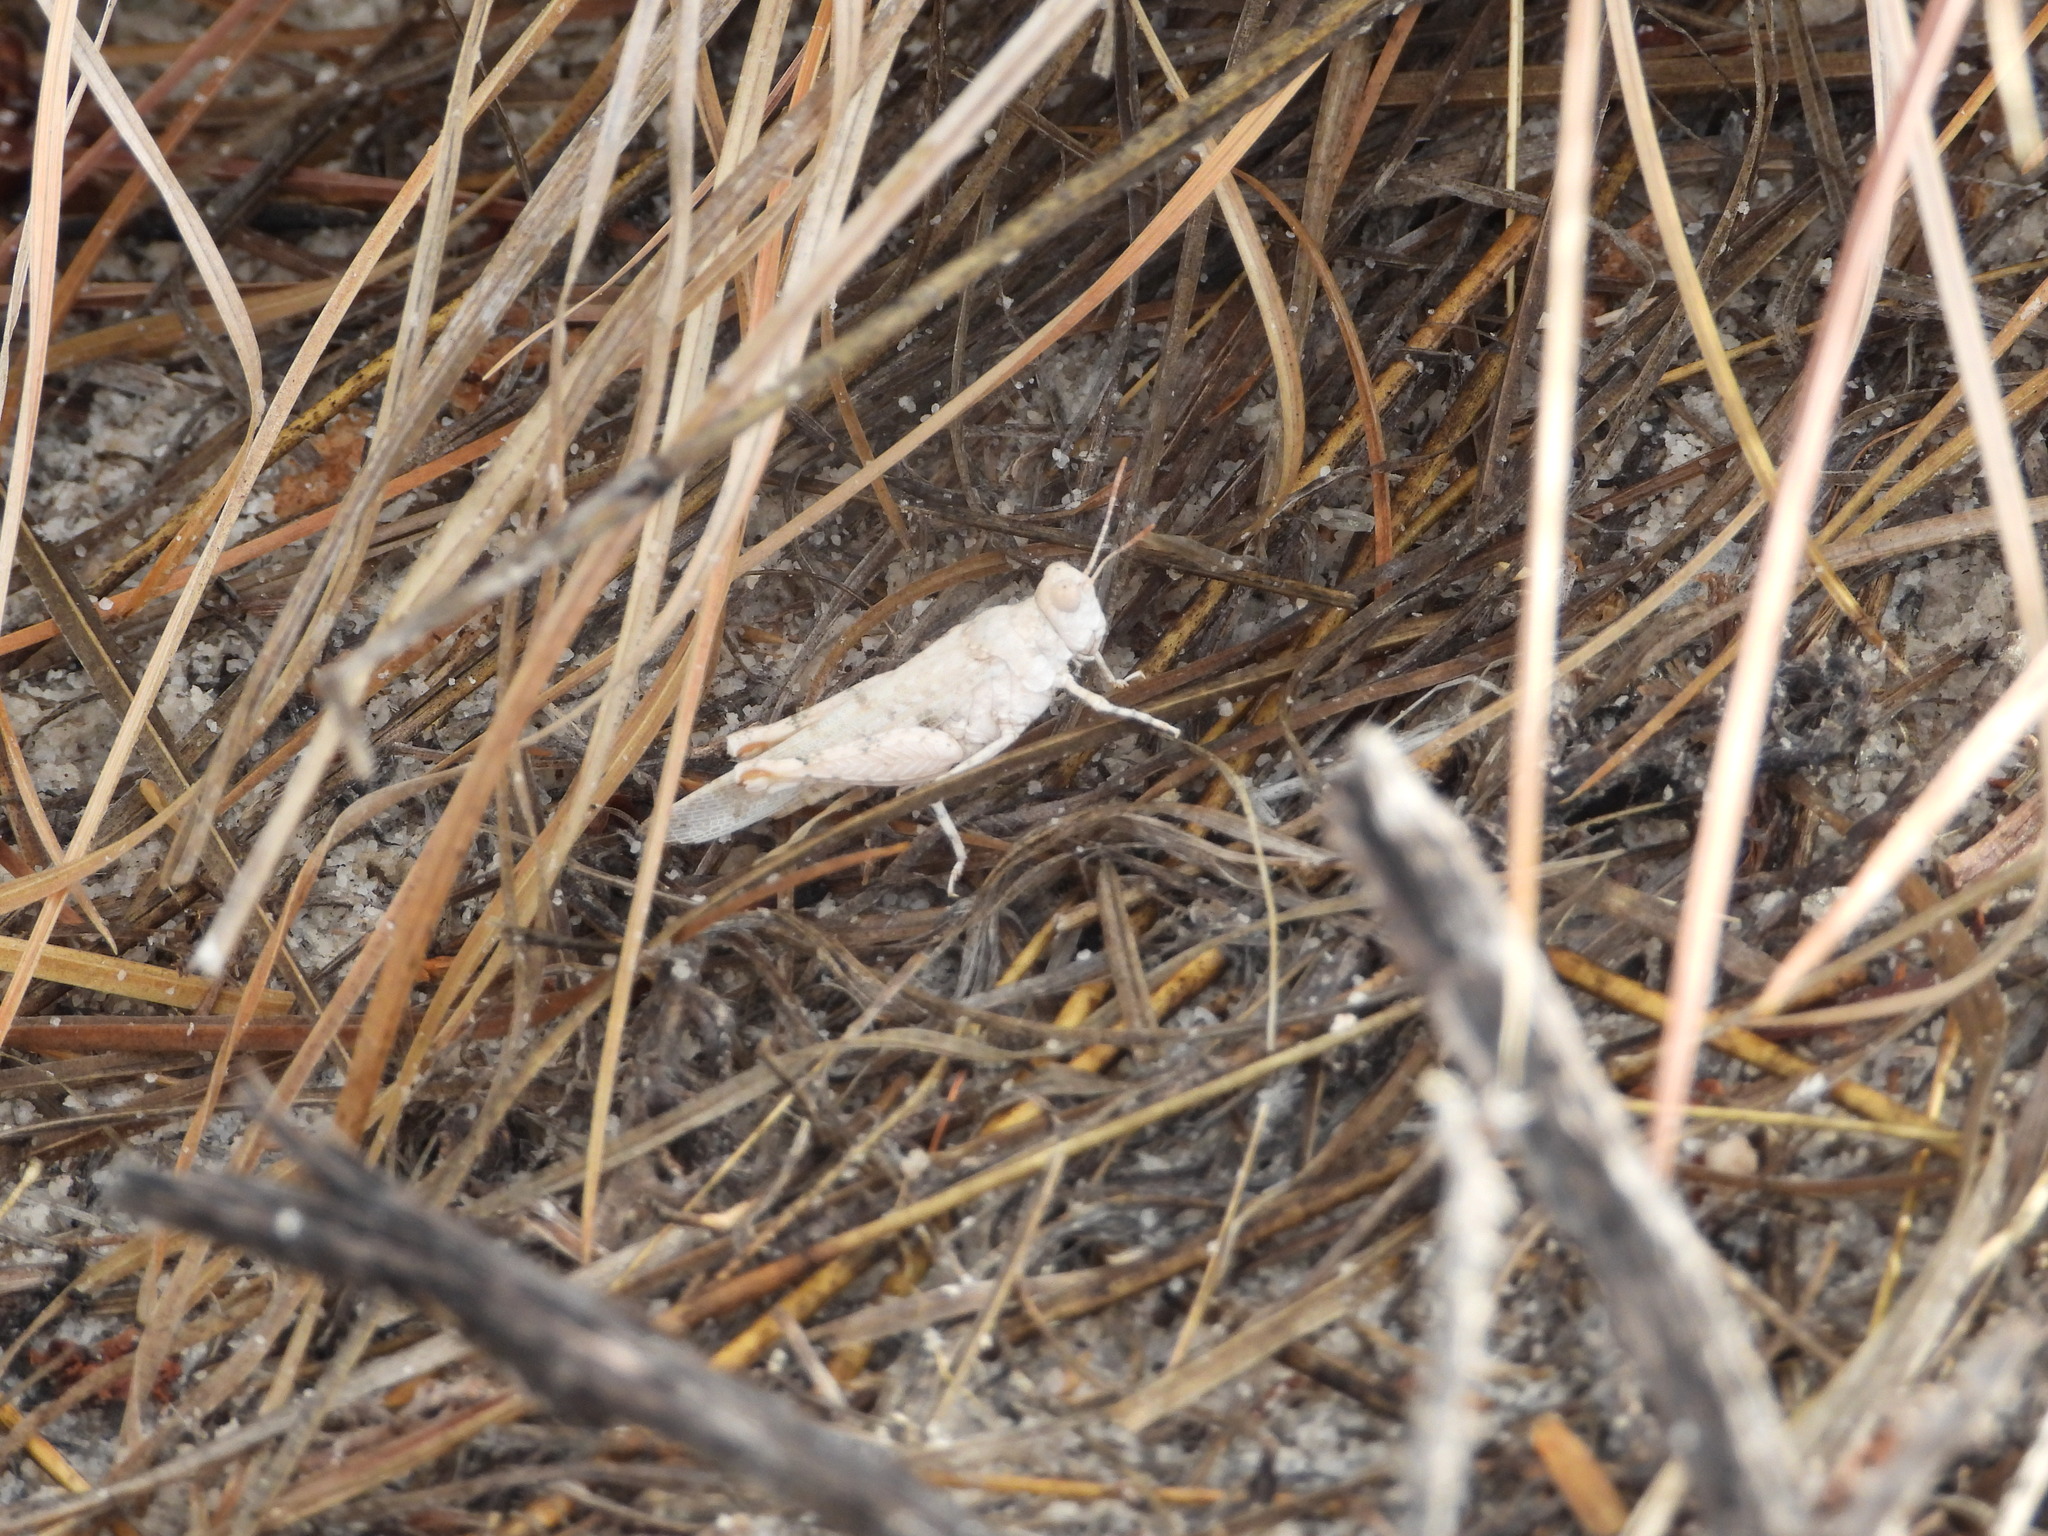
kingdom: Animalia
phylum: Arthropoda
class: Insecta
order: Orthoptera
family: Acrididae
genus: Cibolacris
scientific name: Cibolacris samalayucae
